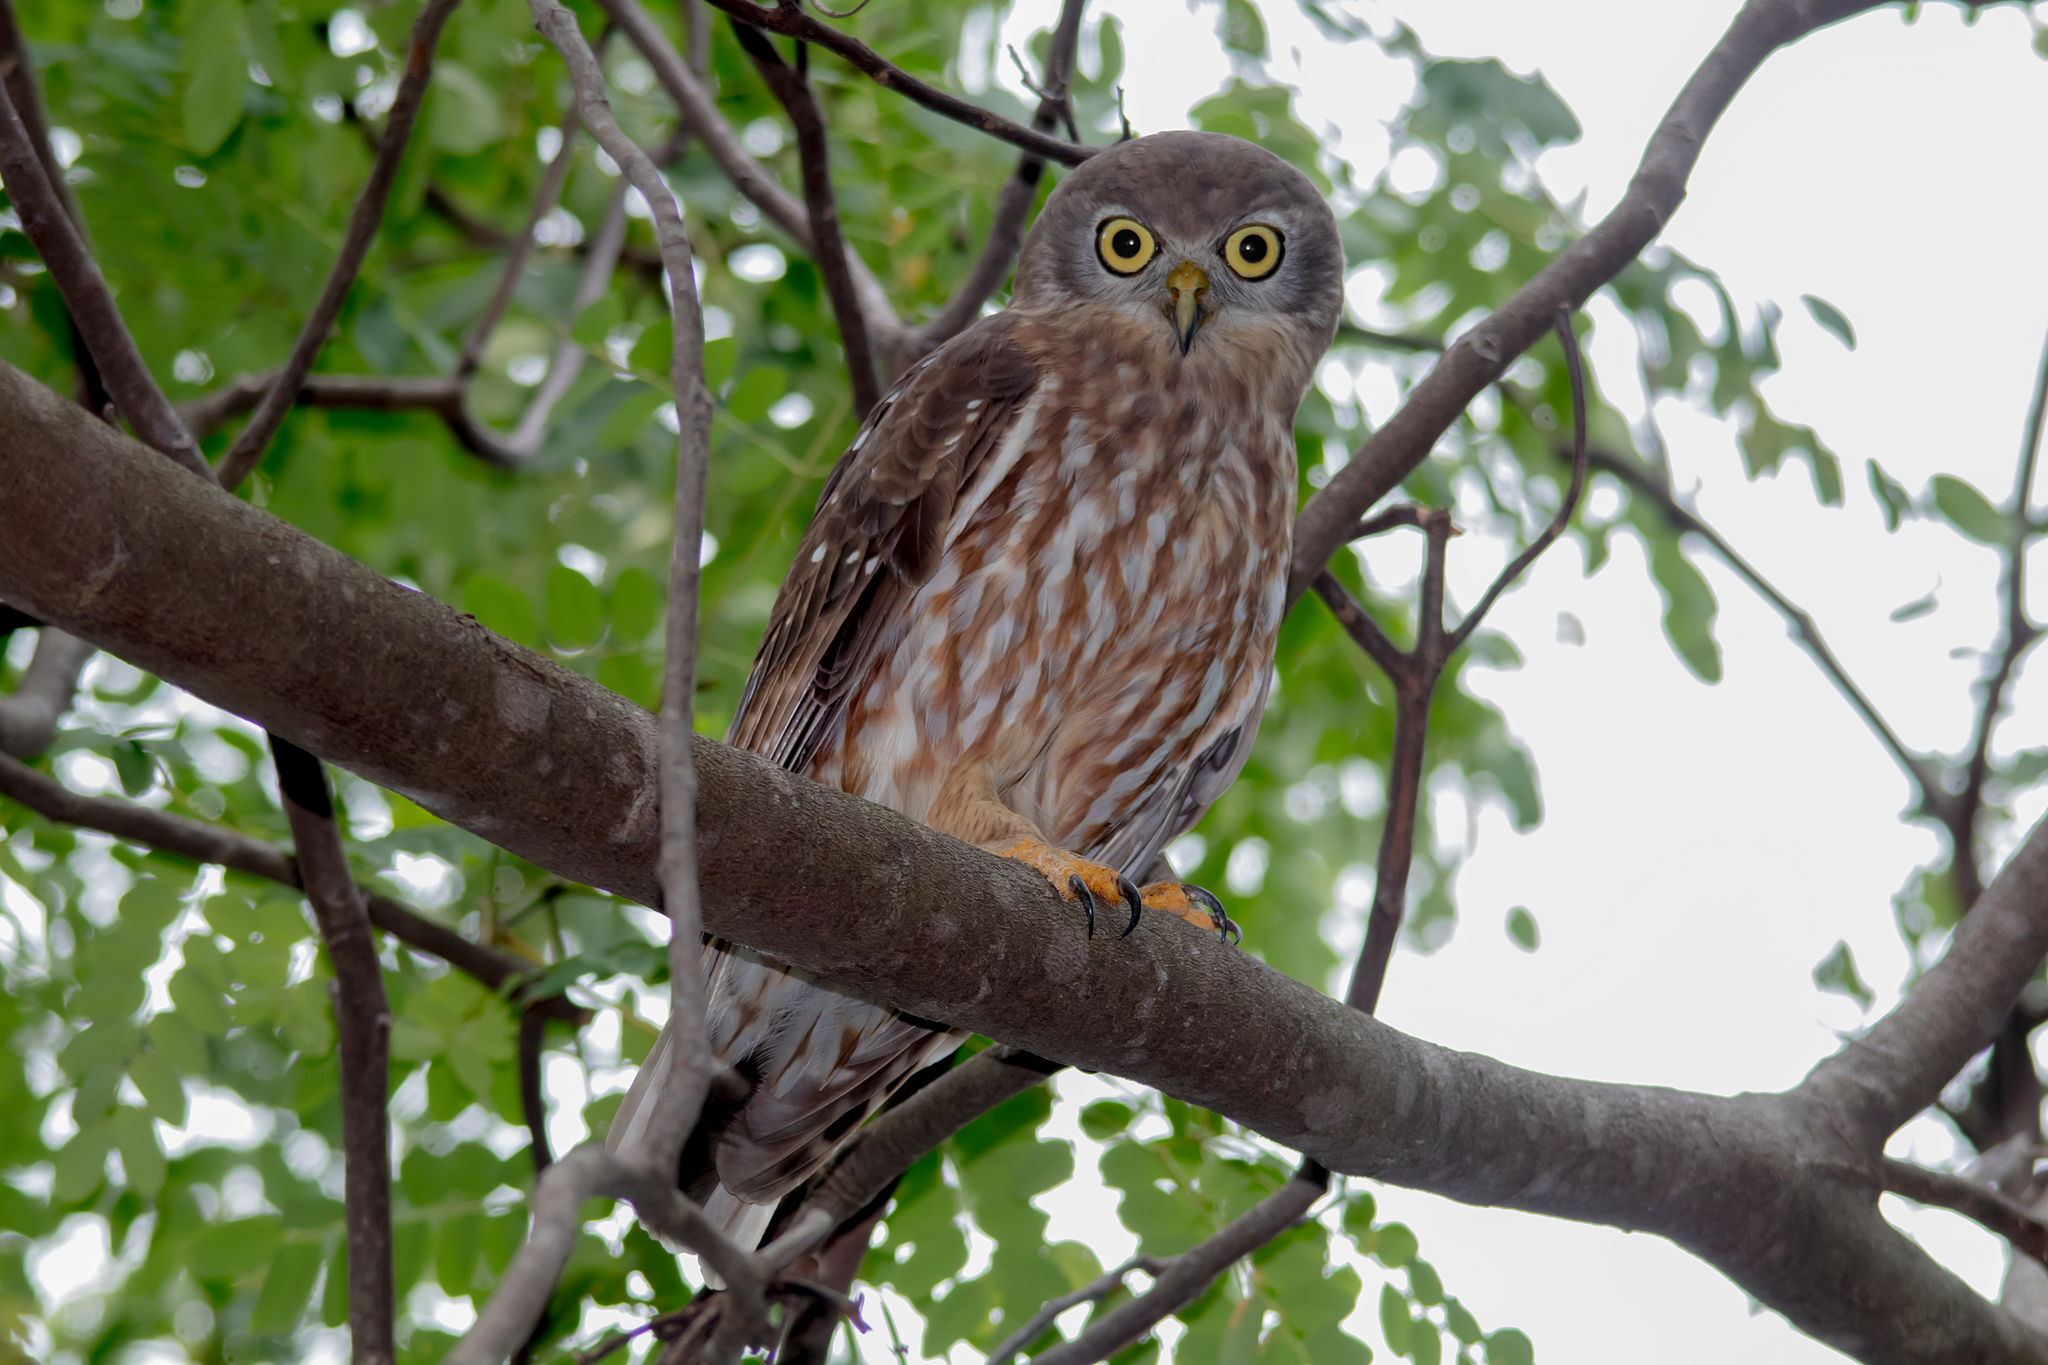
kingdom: Animalia
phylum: Chordata
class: Aves
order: Strigiformes
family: Strigidae
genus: Ninox
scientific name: Ninox connivens
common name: Barking owl
